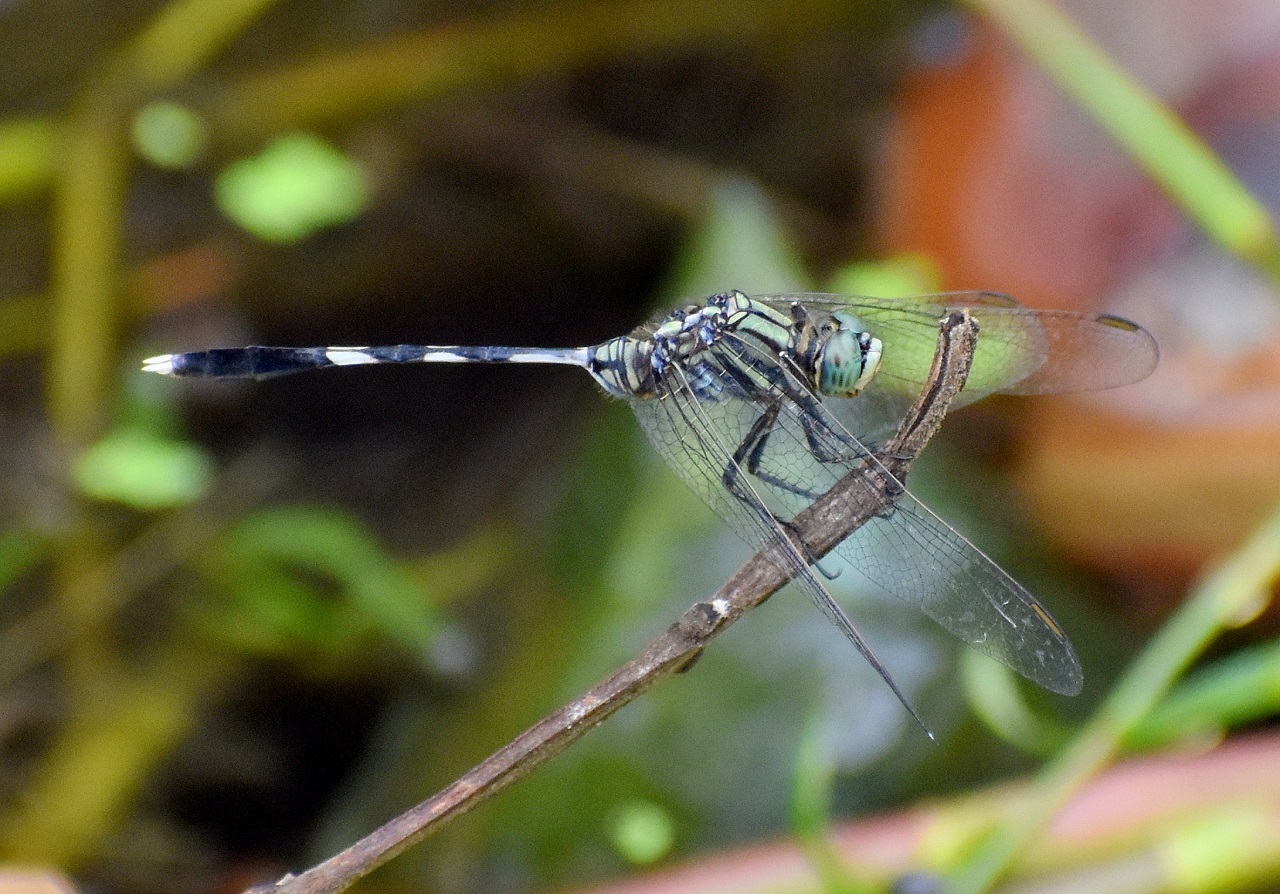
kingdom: Animalia
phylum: Arthropoda
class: Insecta
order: Odonata
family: Libellulidae
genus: Orthetrum
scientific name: Orthetrum sabina
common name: Slender skimmer
